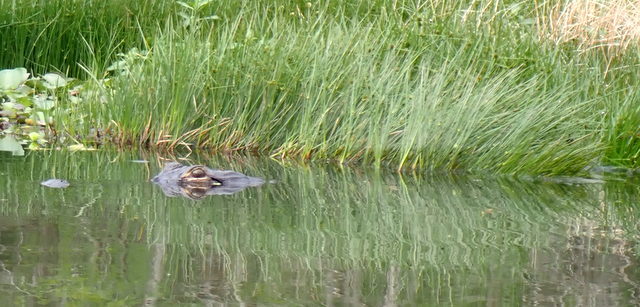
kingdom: Animalia
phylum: Chordata
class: Crocodylia
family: Alligatoridae
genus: Alligator
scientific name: Alligator mississippiensis
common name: American alligator
